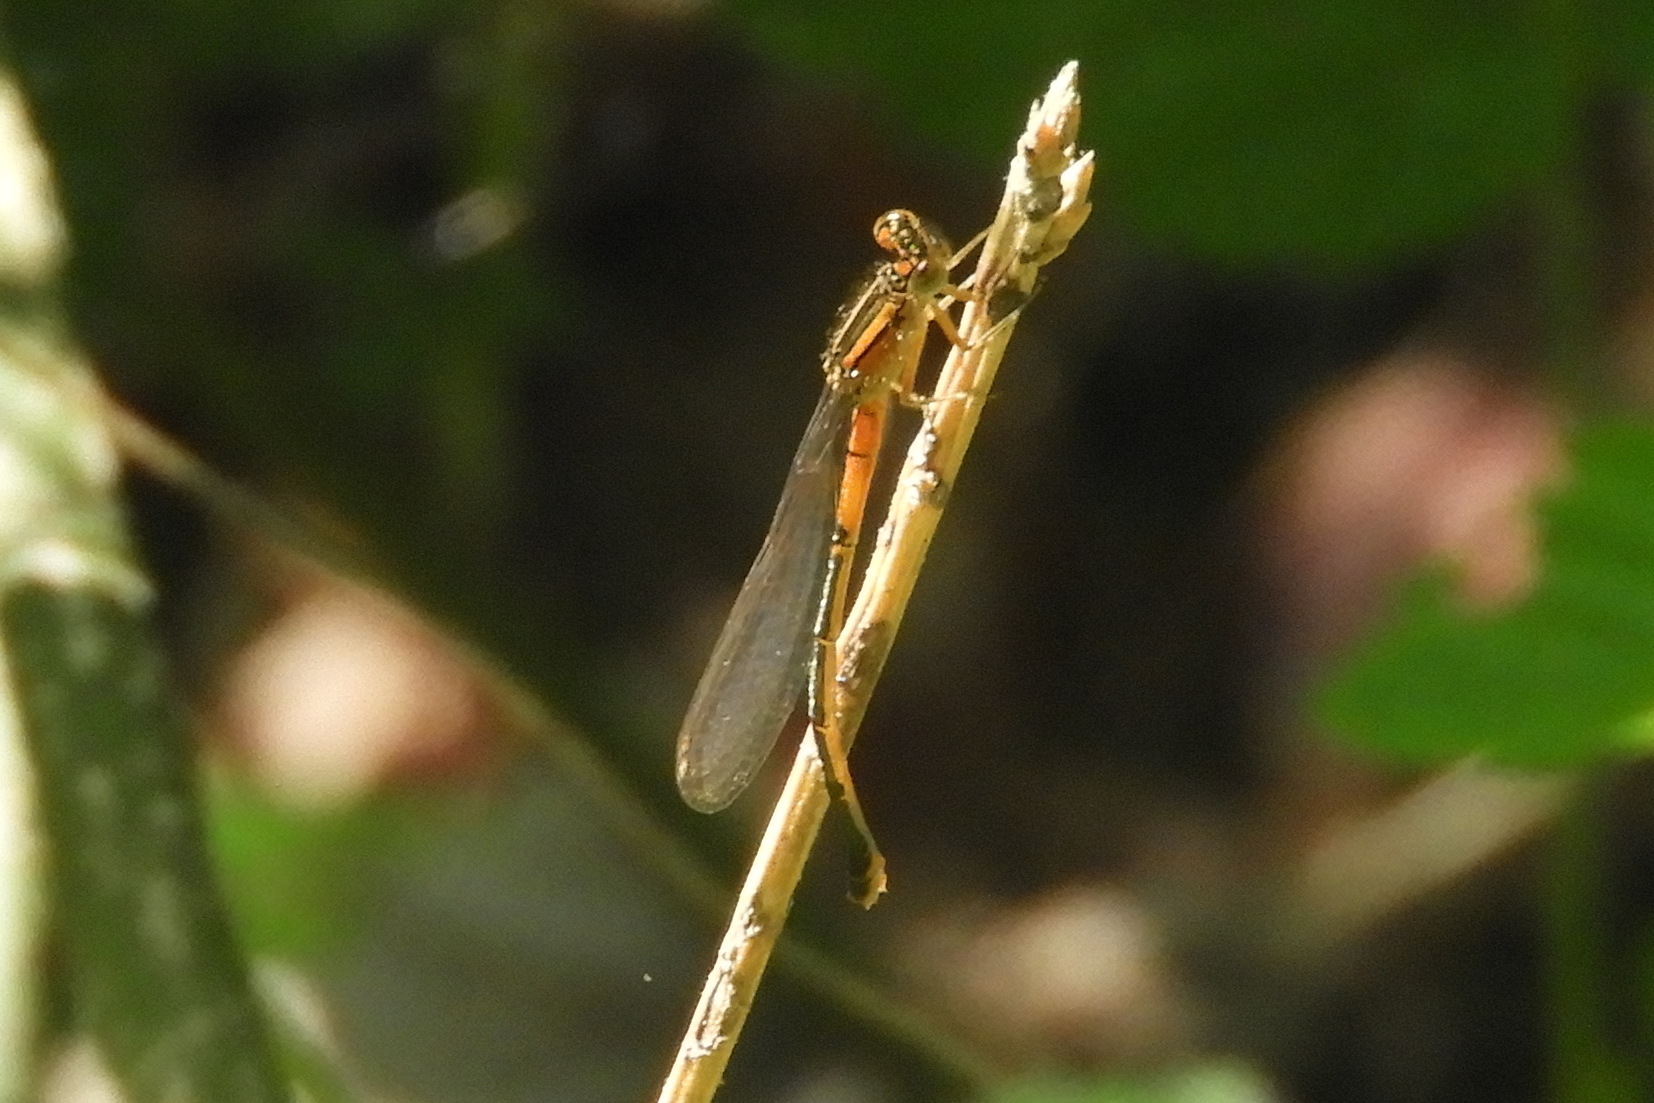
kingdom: Animalia
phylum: Arthropoda
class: Insecta
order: Odonata
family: Coenagrionidae
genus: Ischnura
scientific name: Ischnura verticalis
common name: Eastern forktail
